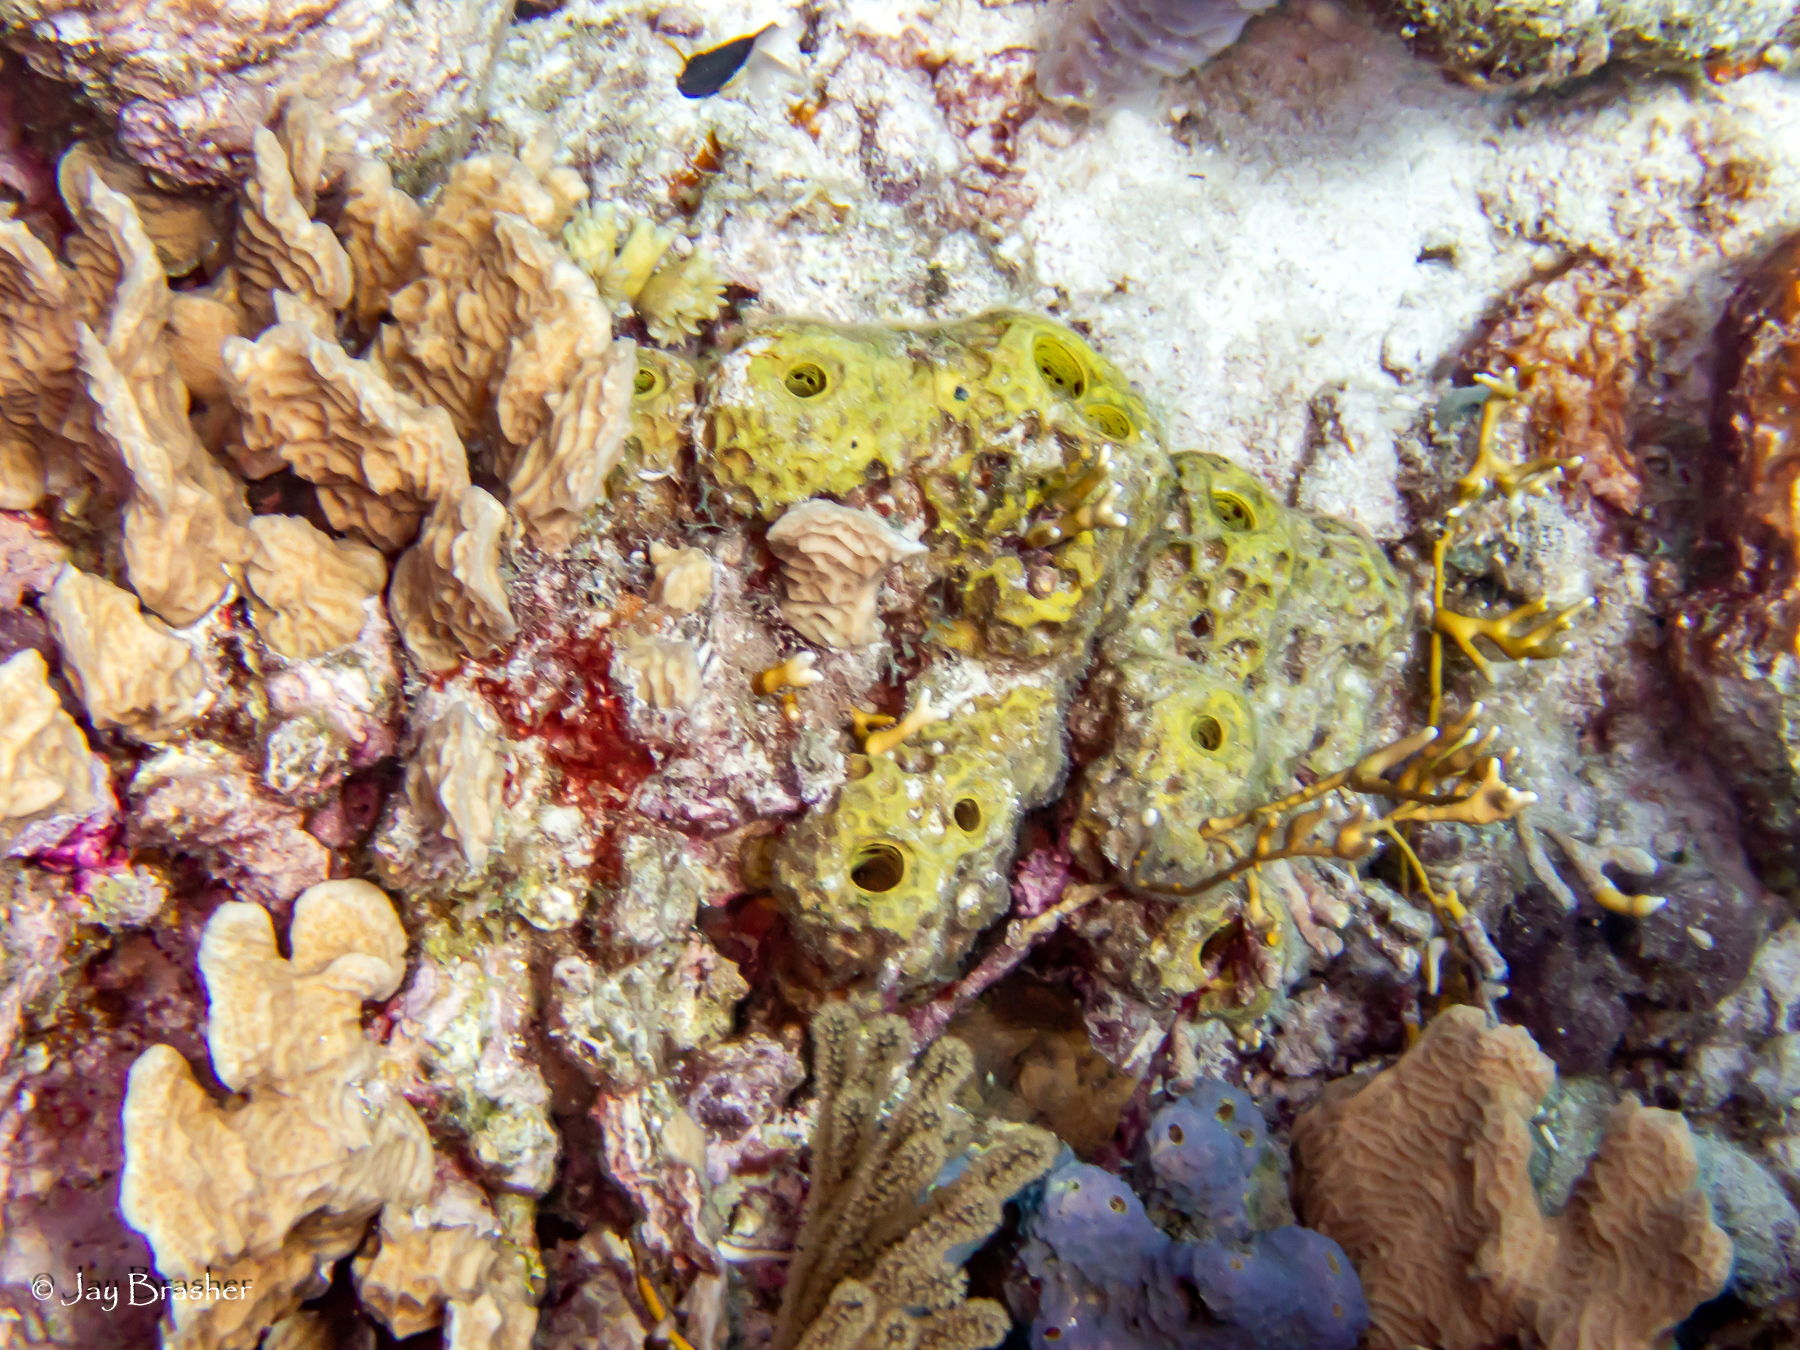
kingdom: Animalia
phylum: Porifera
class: Demospongiae
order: Verongiida
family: Aplysinidae
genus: Verongula
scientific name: Verongula rigida
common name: Pitted sponge
